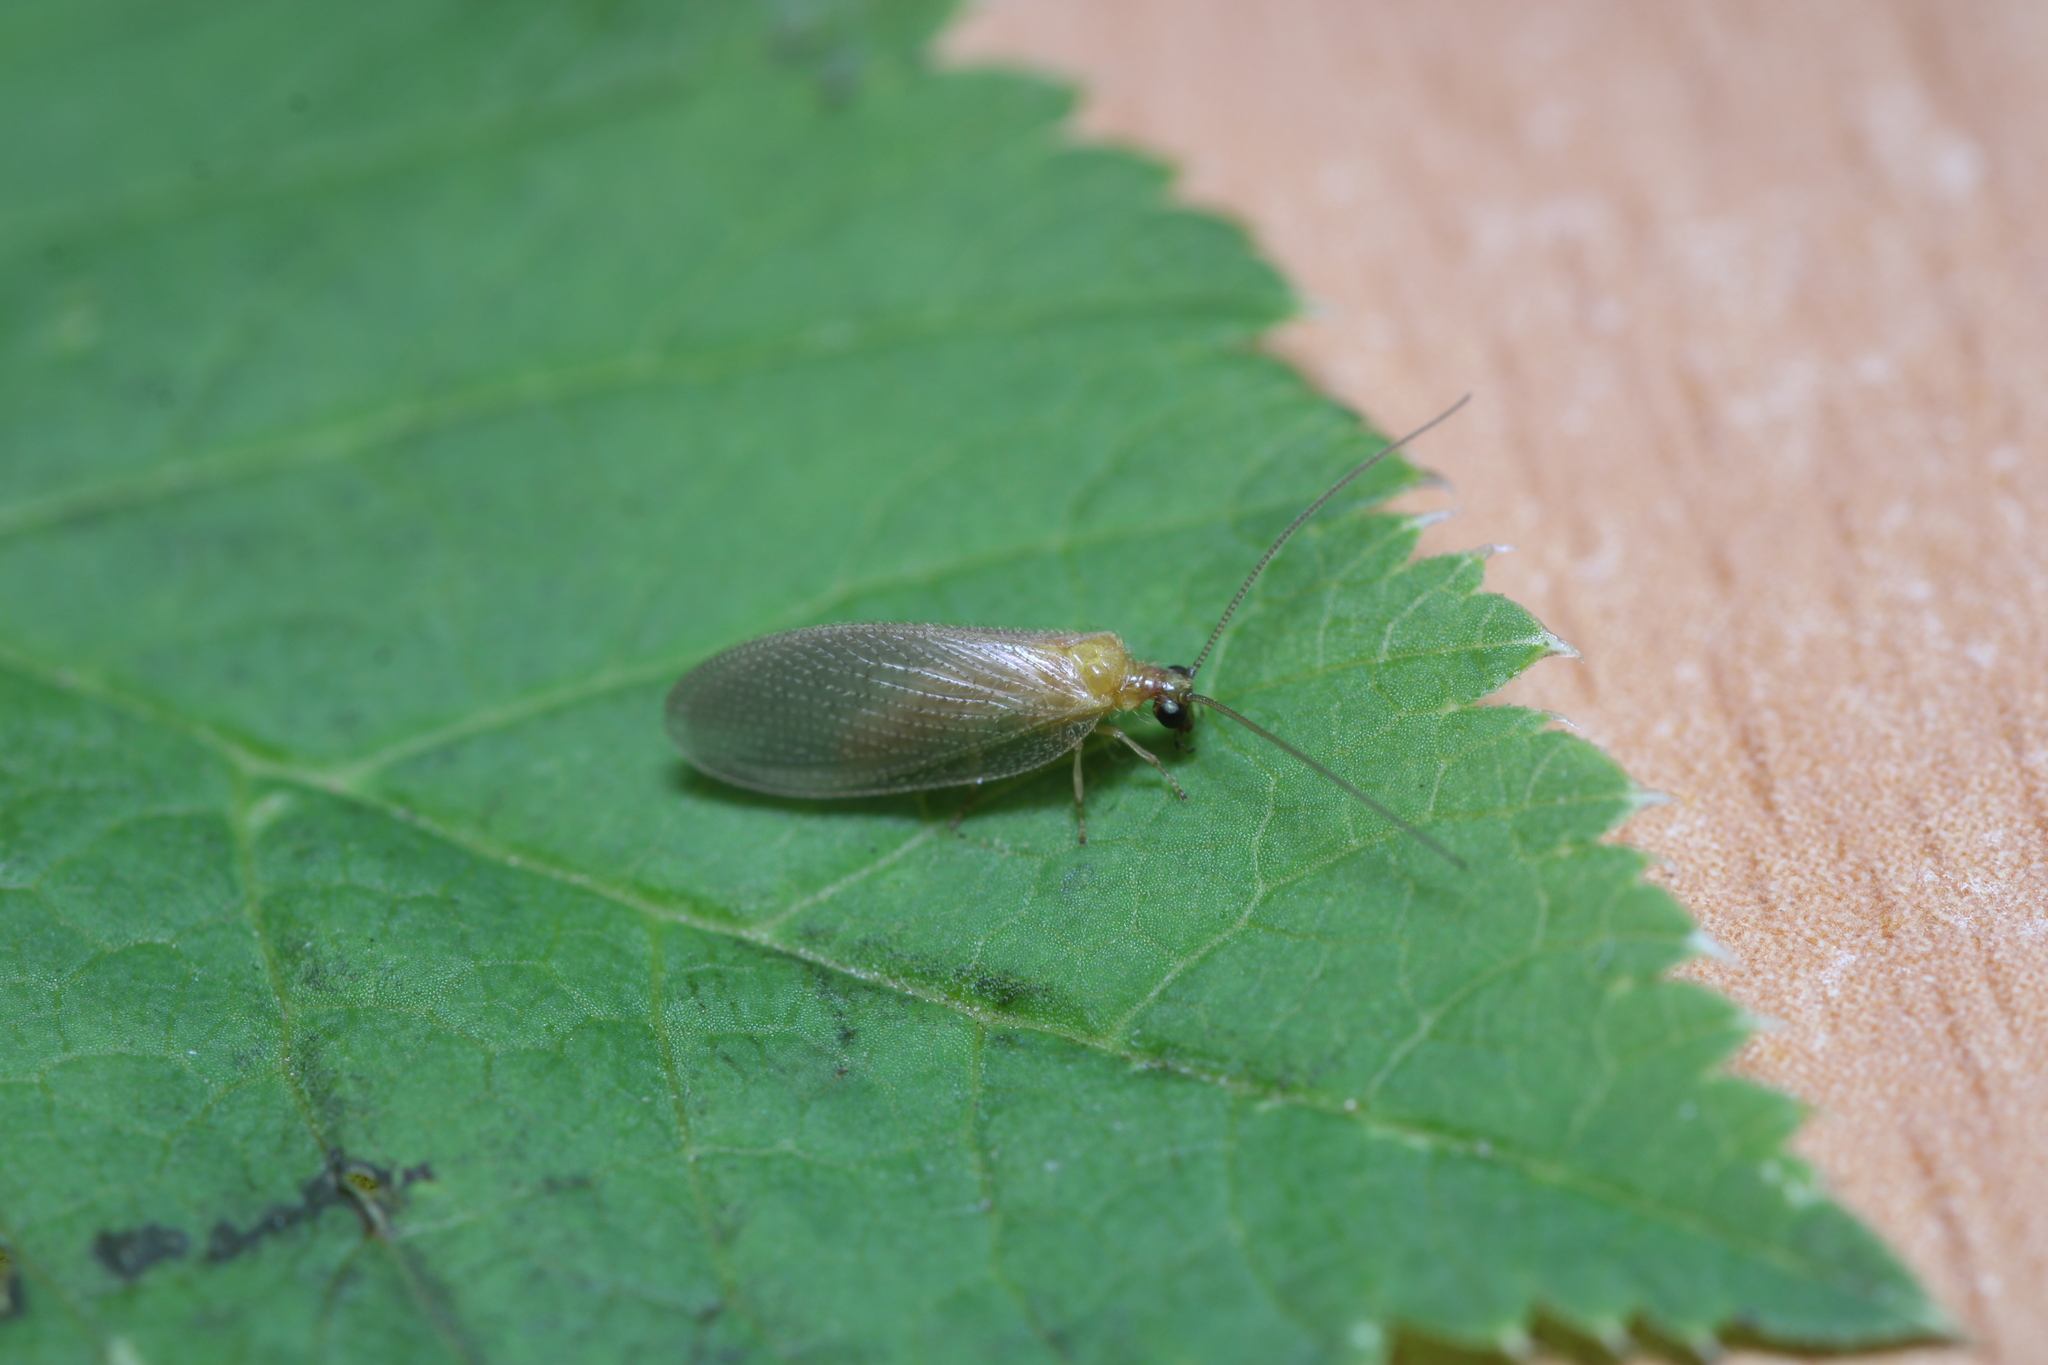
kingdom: Animalia
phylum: Arthropoda
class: Insecta
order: Neuroptera
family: Hemerobiidae
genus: Hemerobius
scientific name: Hemerobius nitidulus
